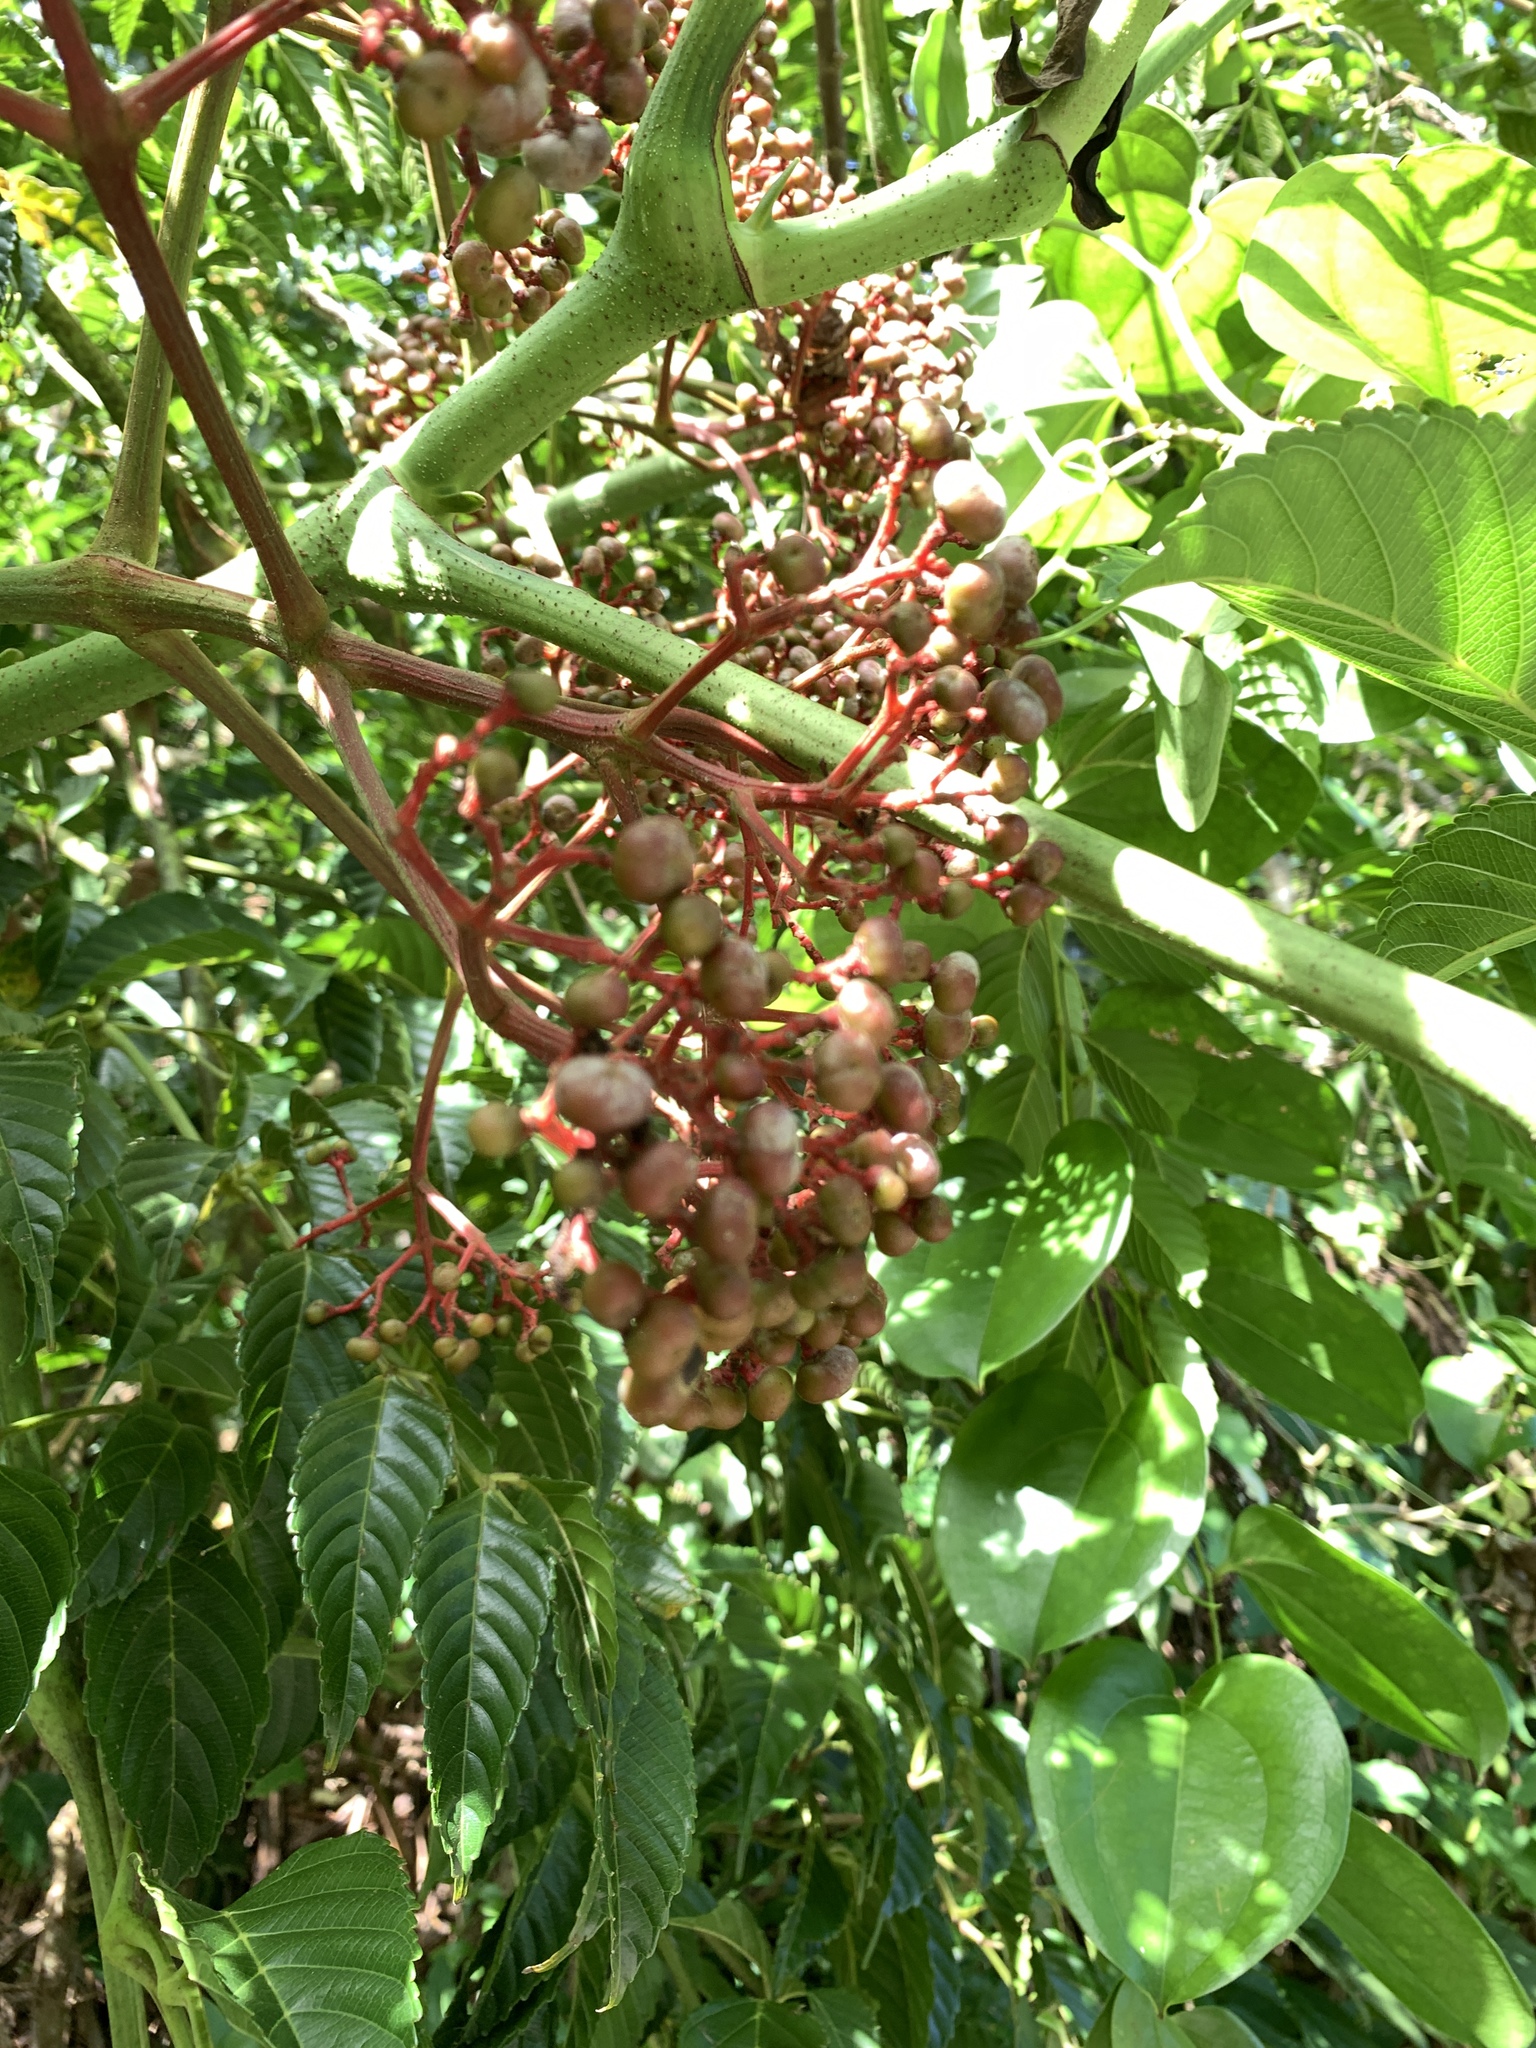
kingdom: Plantae
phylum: Tracheophyta
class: Magnoliopsida
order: Vitales
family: Vitaceae
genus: Leea
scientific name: Leea guineensis
